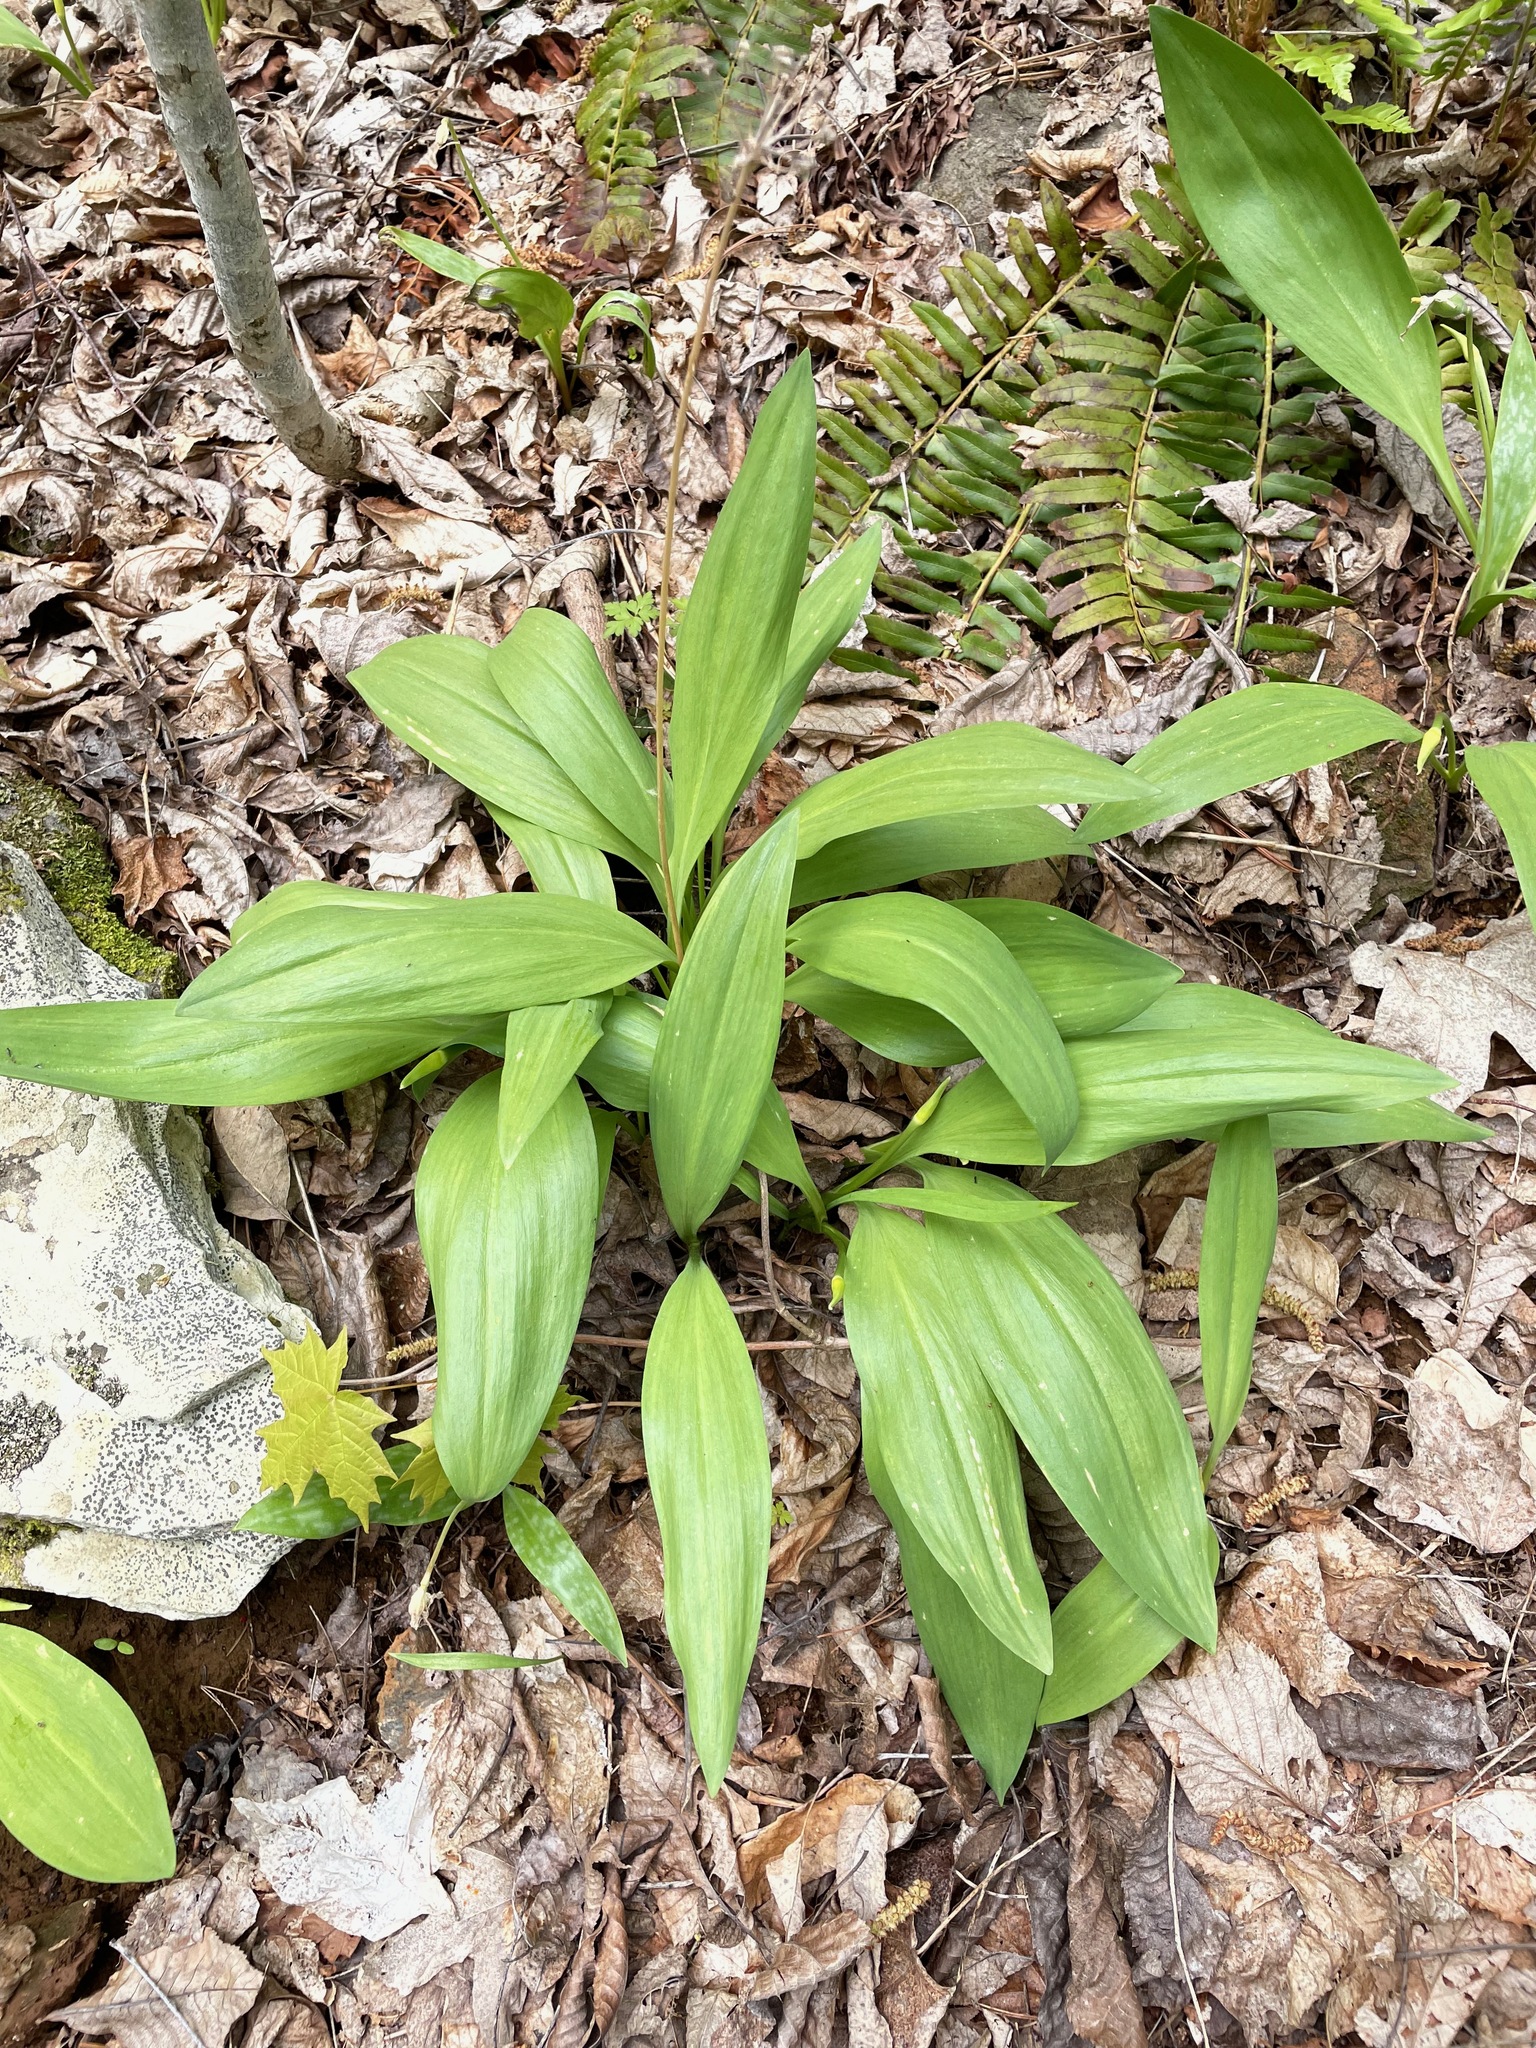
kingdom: Plantae
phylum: Tracheophyta
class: Liliopsida
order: Asparagales
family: Amaryllidaceae
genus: Allium
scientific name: Allium tricoccum
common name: Ramp
